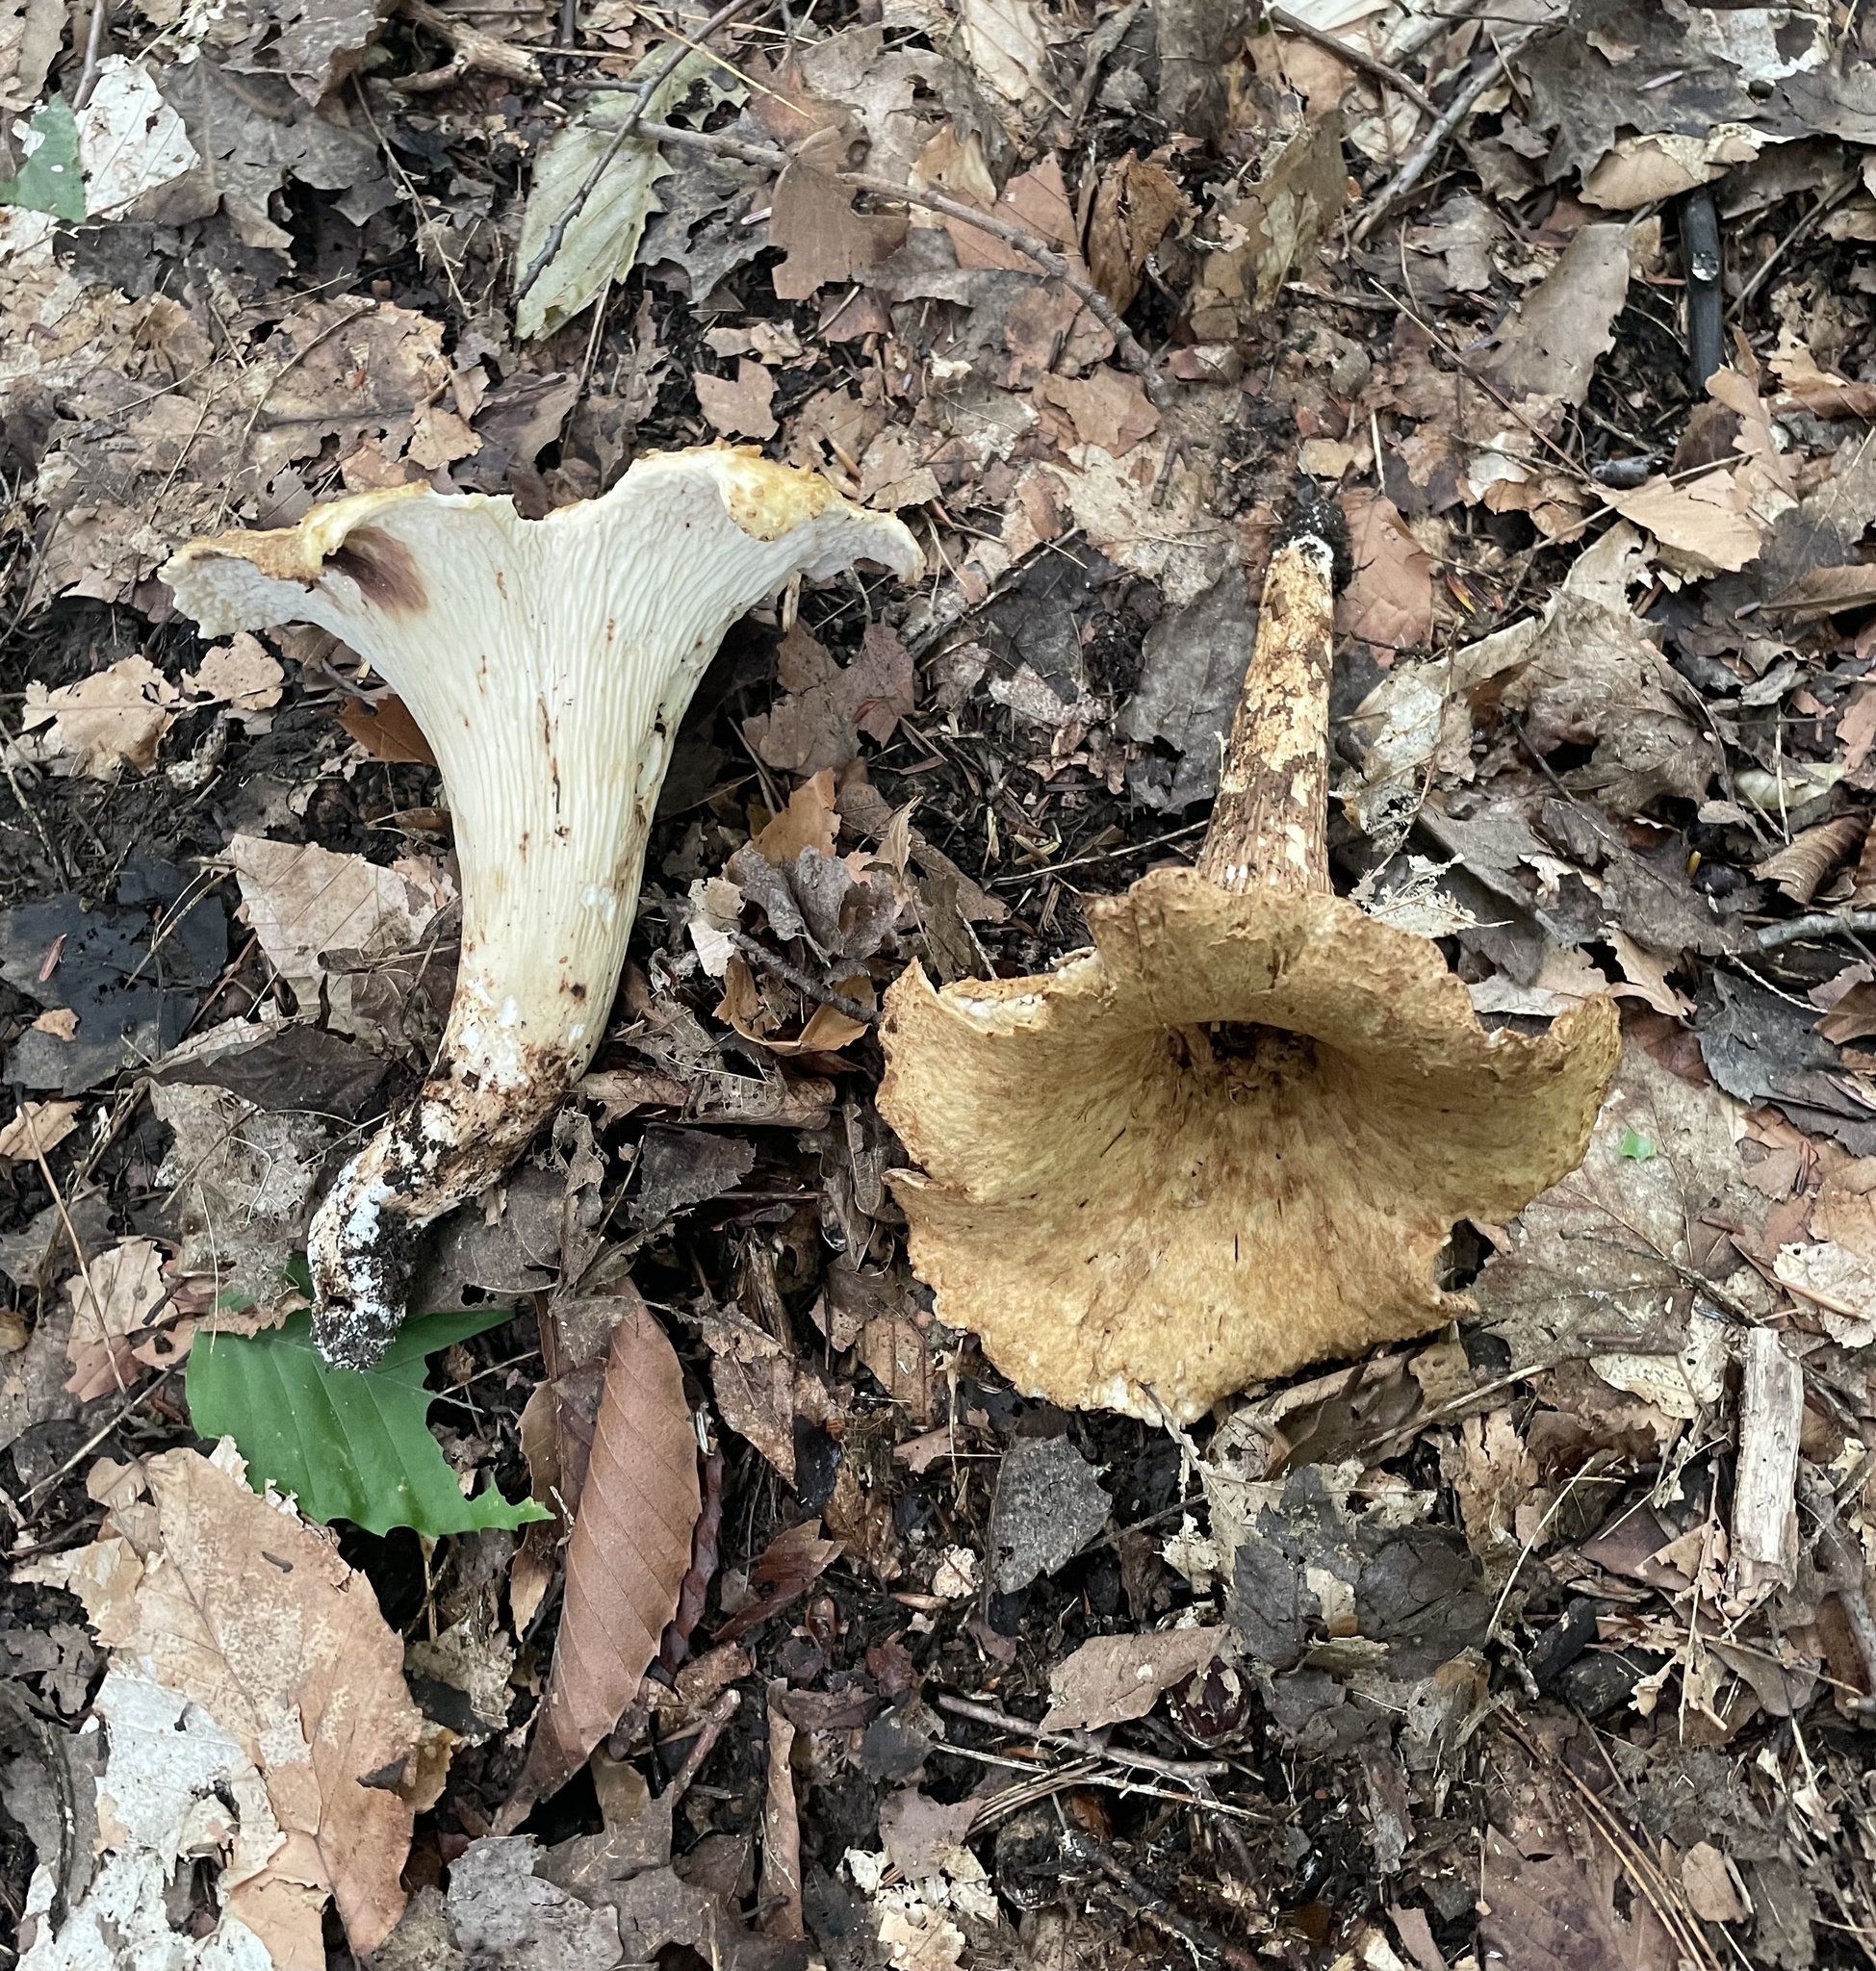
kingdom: Fungi
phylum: Basidiomycota
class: Agaricomycetes
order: Gomphales
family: Gomphaceae
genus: Turbinellus
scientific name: Turbinellus kauffmanii
